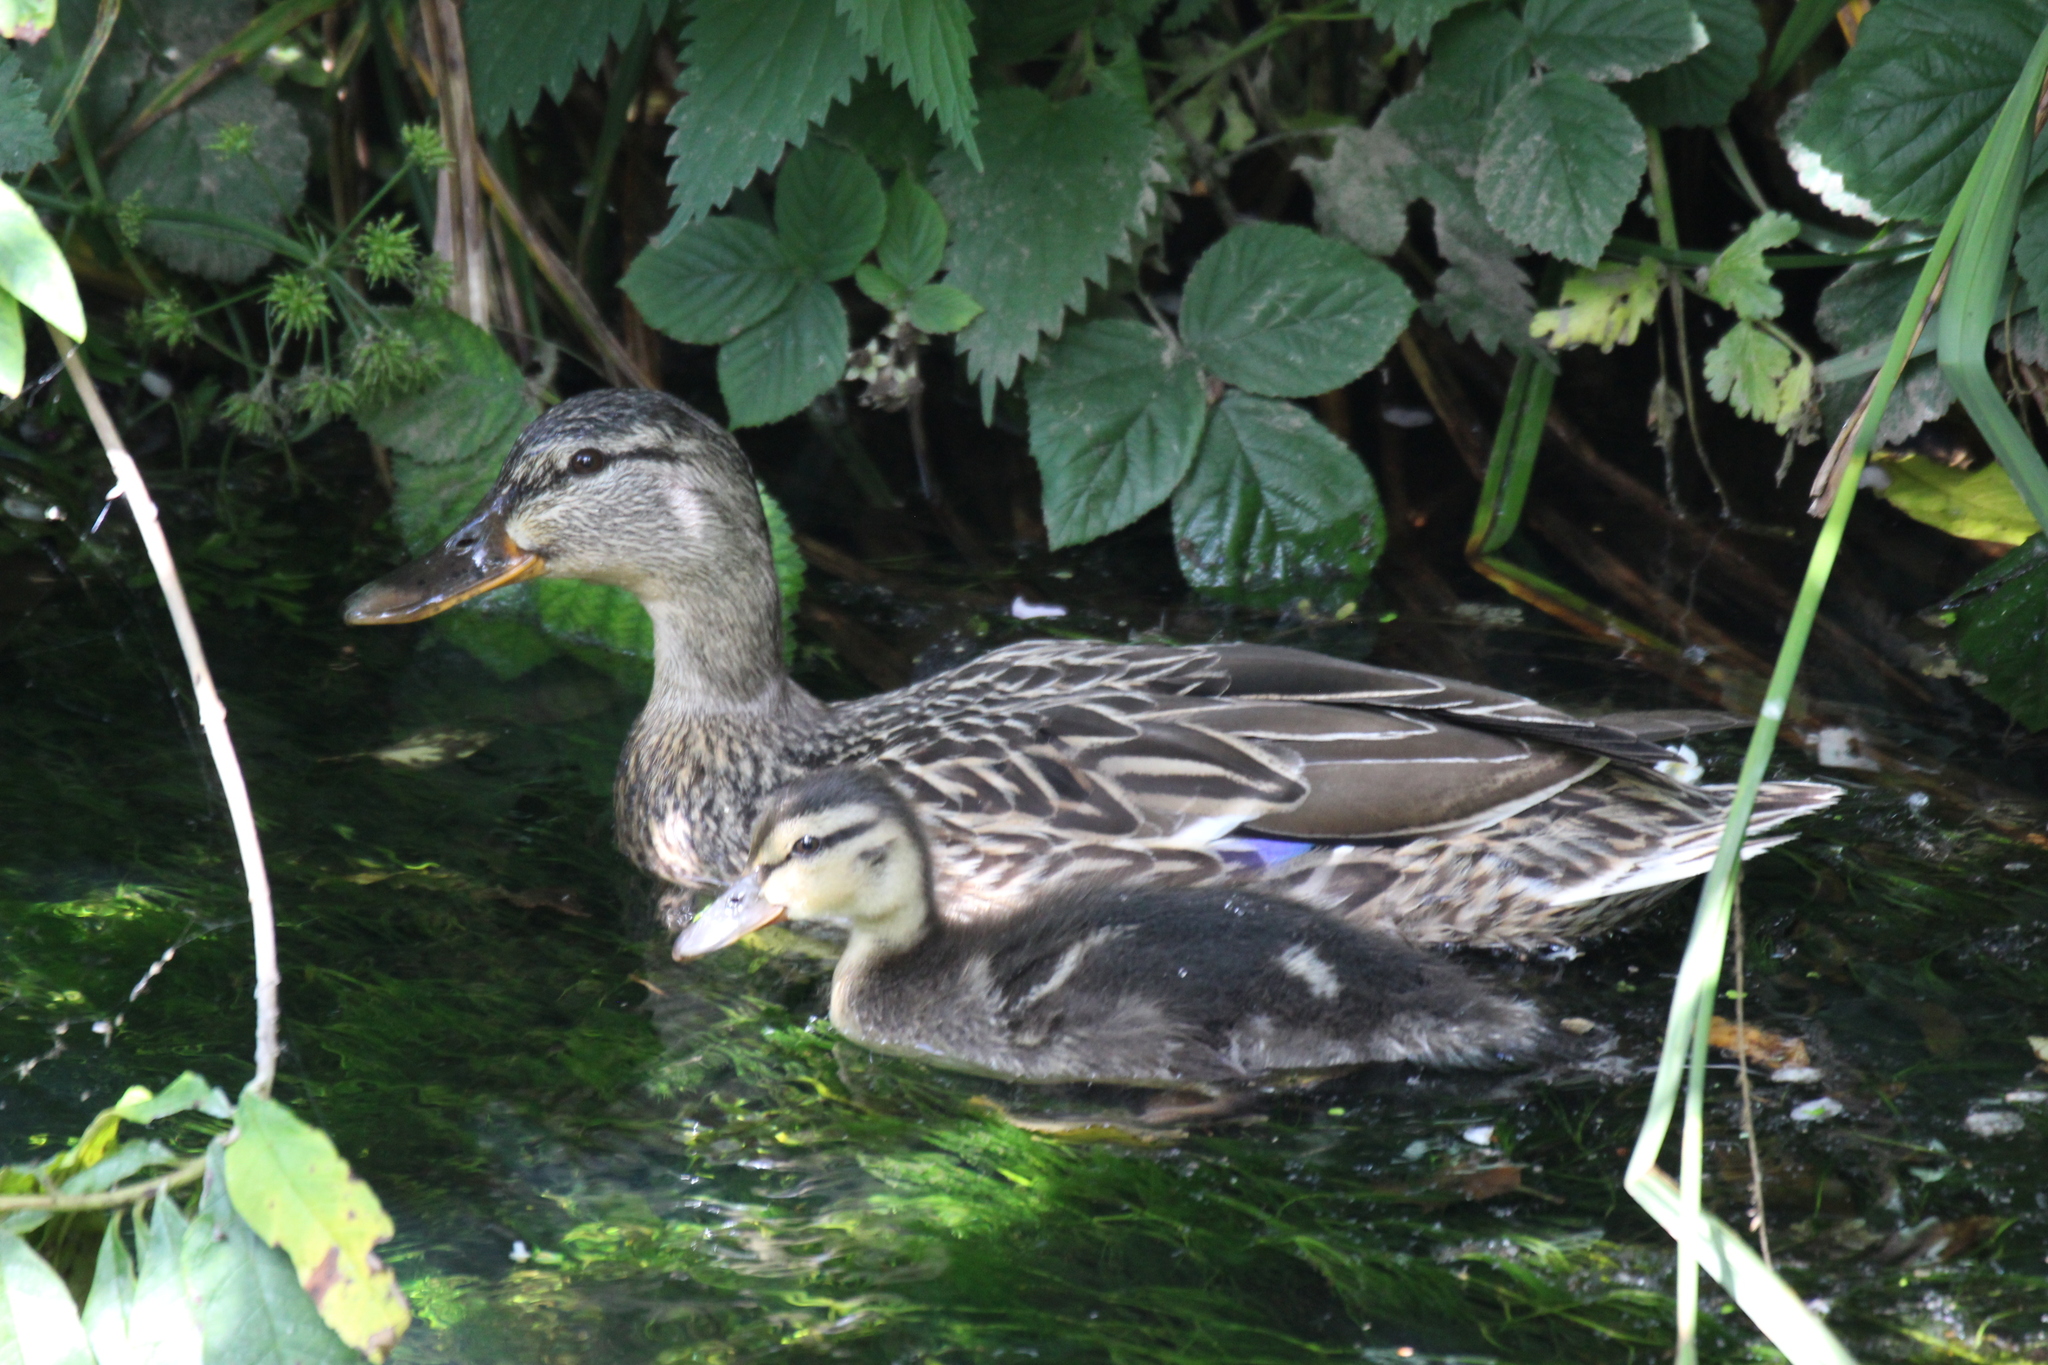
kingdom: Animalia
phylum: Chordata
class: Aves
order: Anseriformes
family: Anatidae
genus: Anas
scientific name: Anas platyrhynchos
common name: Mallard
